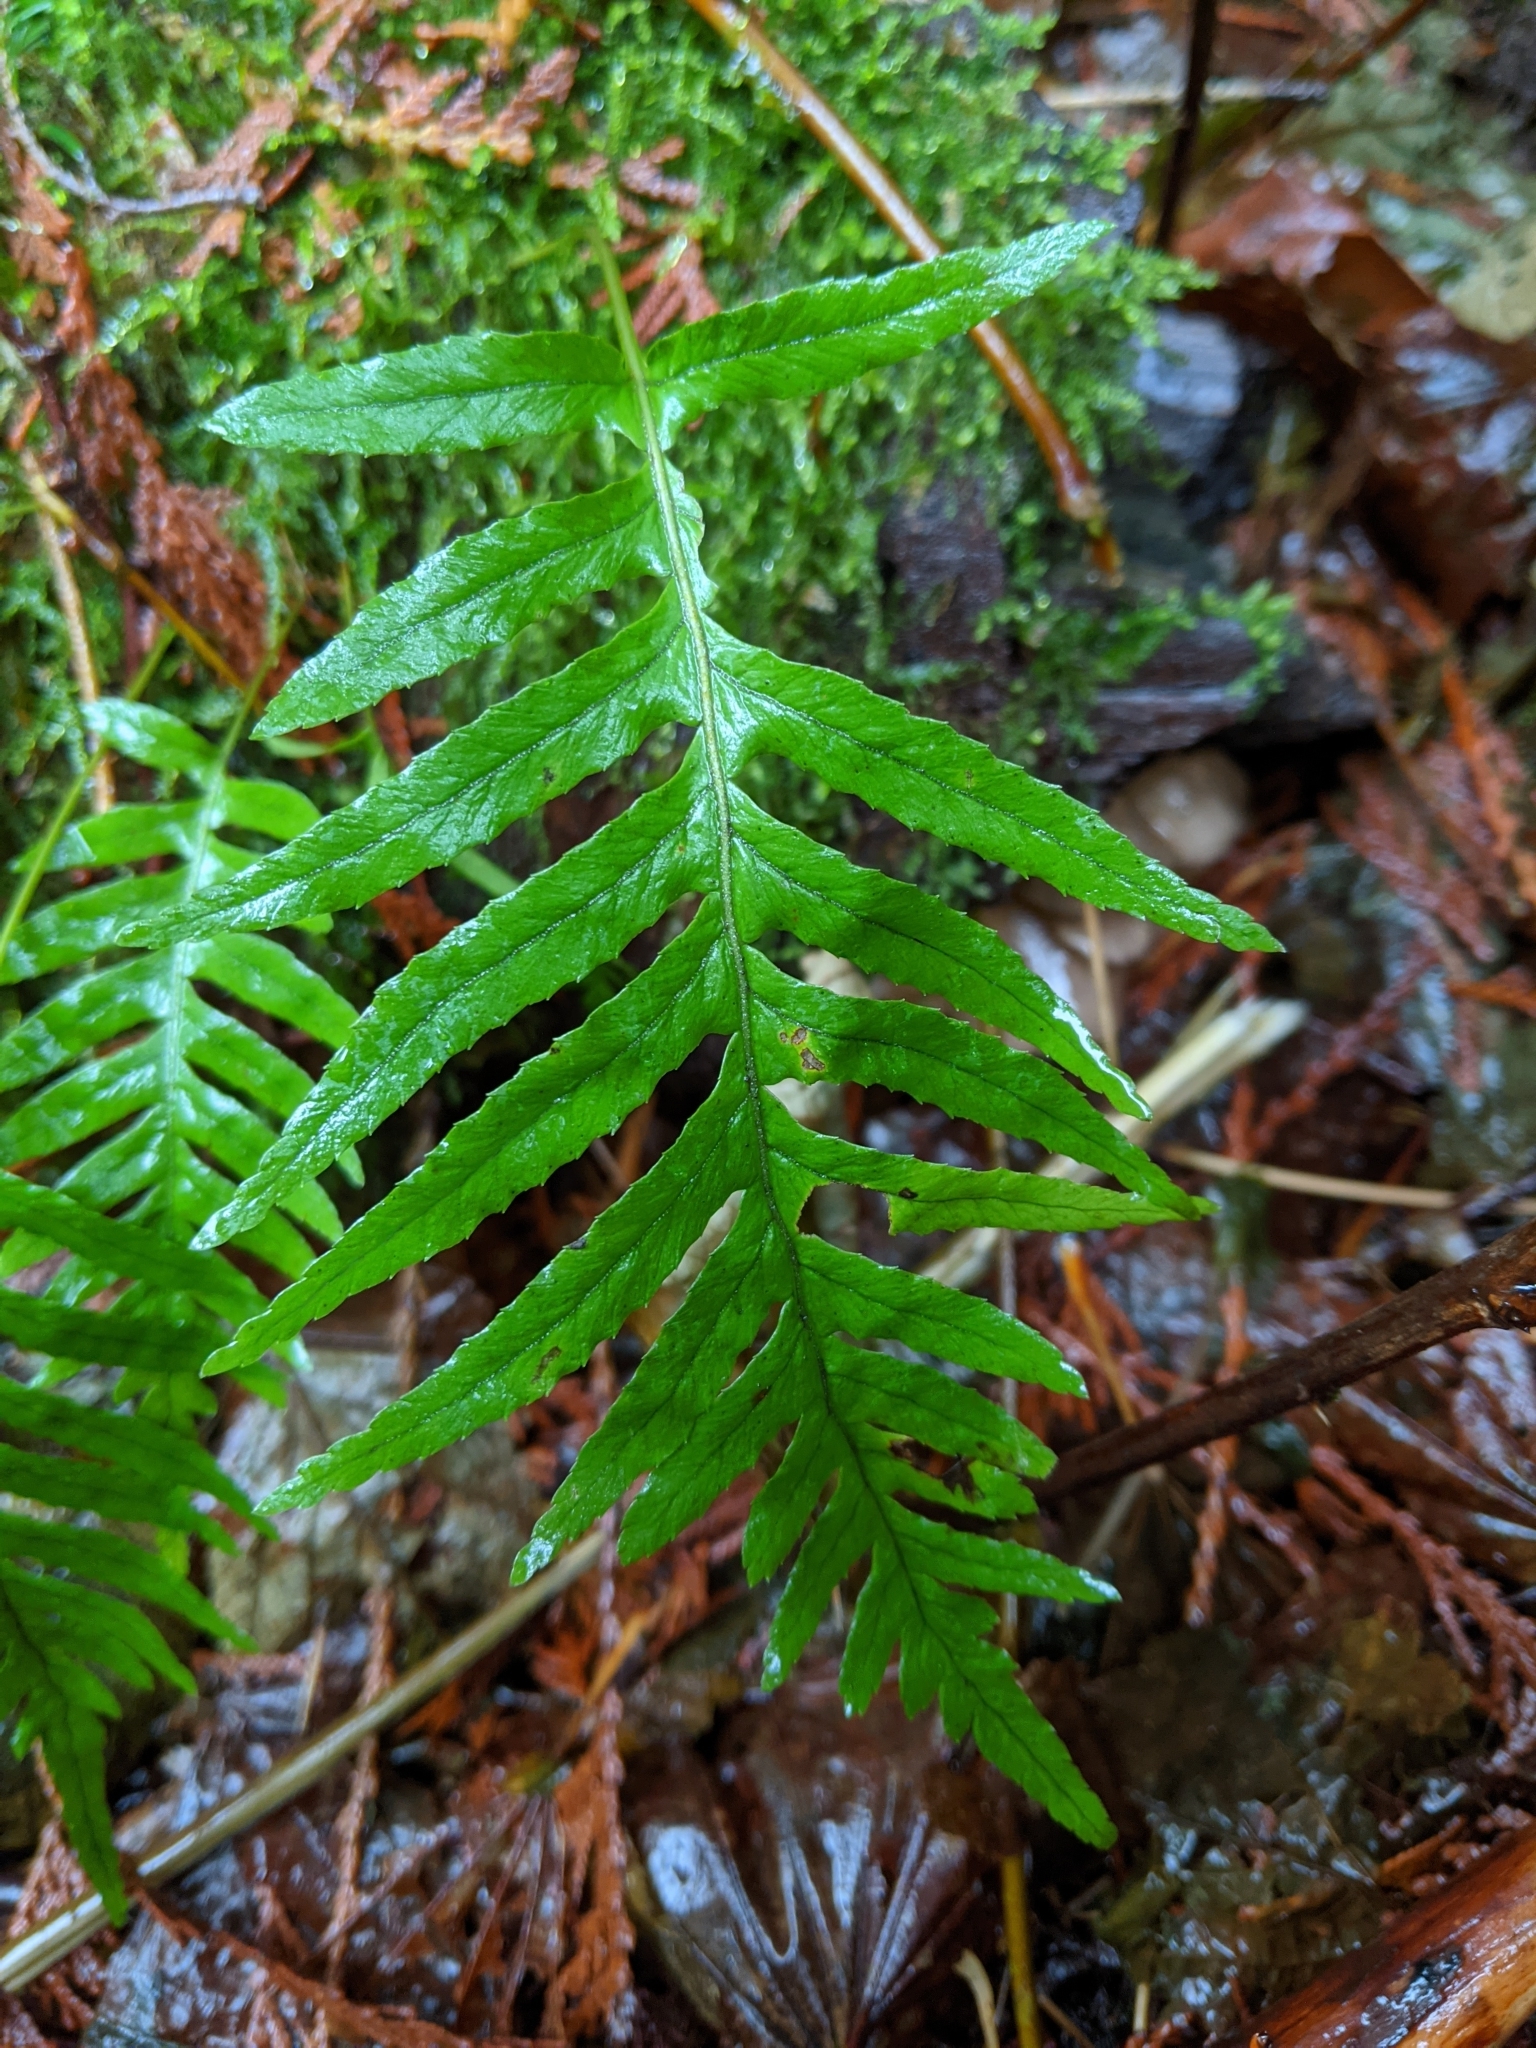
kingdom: Plantae
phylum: Tracheophyta
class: Polypodiopsida
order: Polypodiales
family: Polypodiaceae
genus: Polypodium
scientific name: Polypodium glycyrrhiza
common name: Licorice fern
